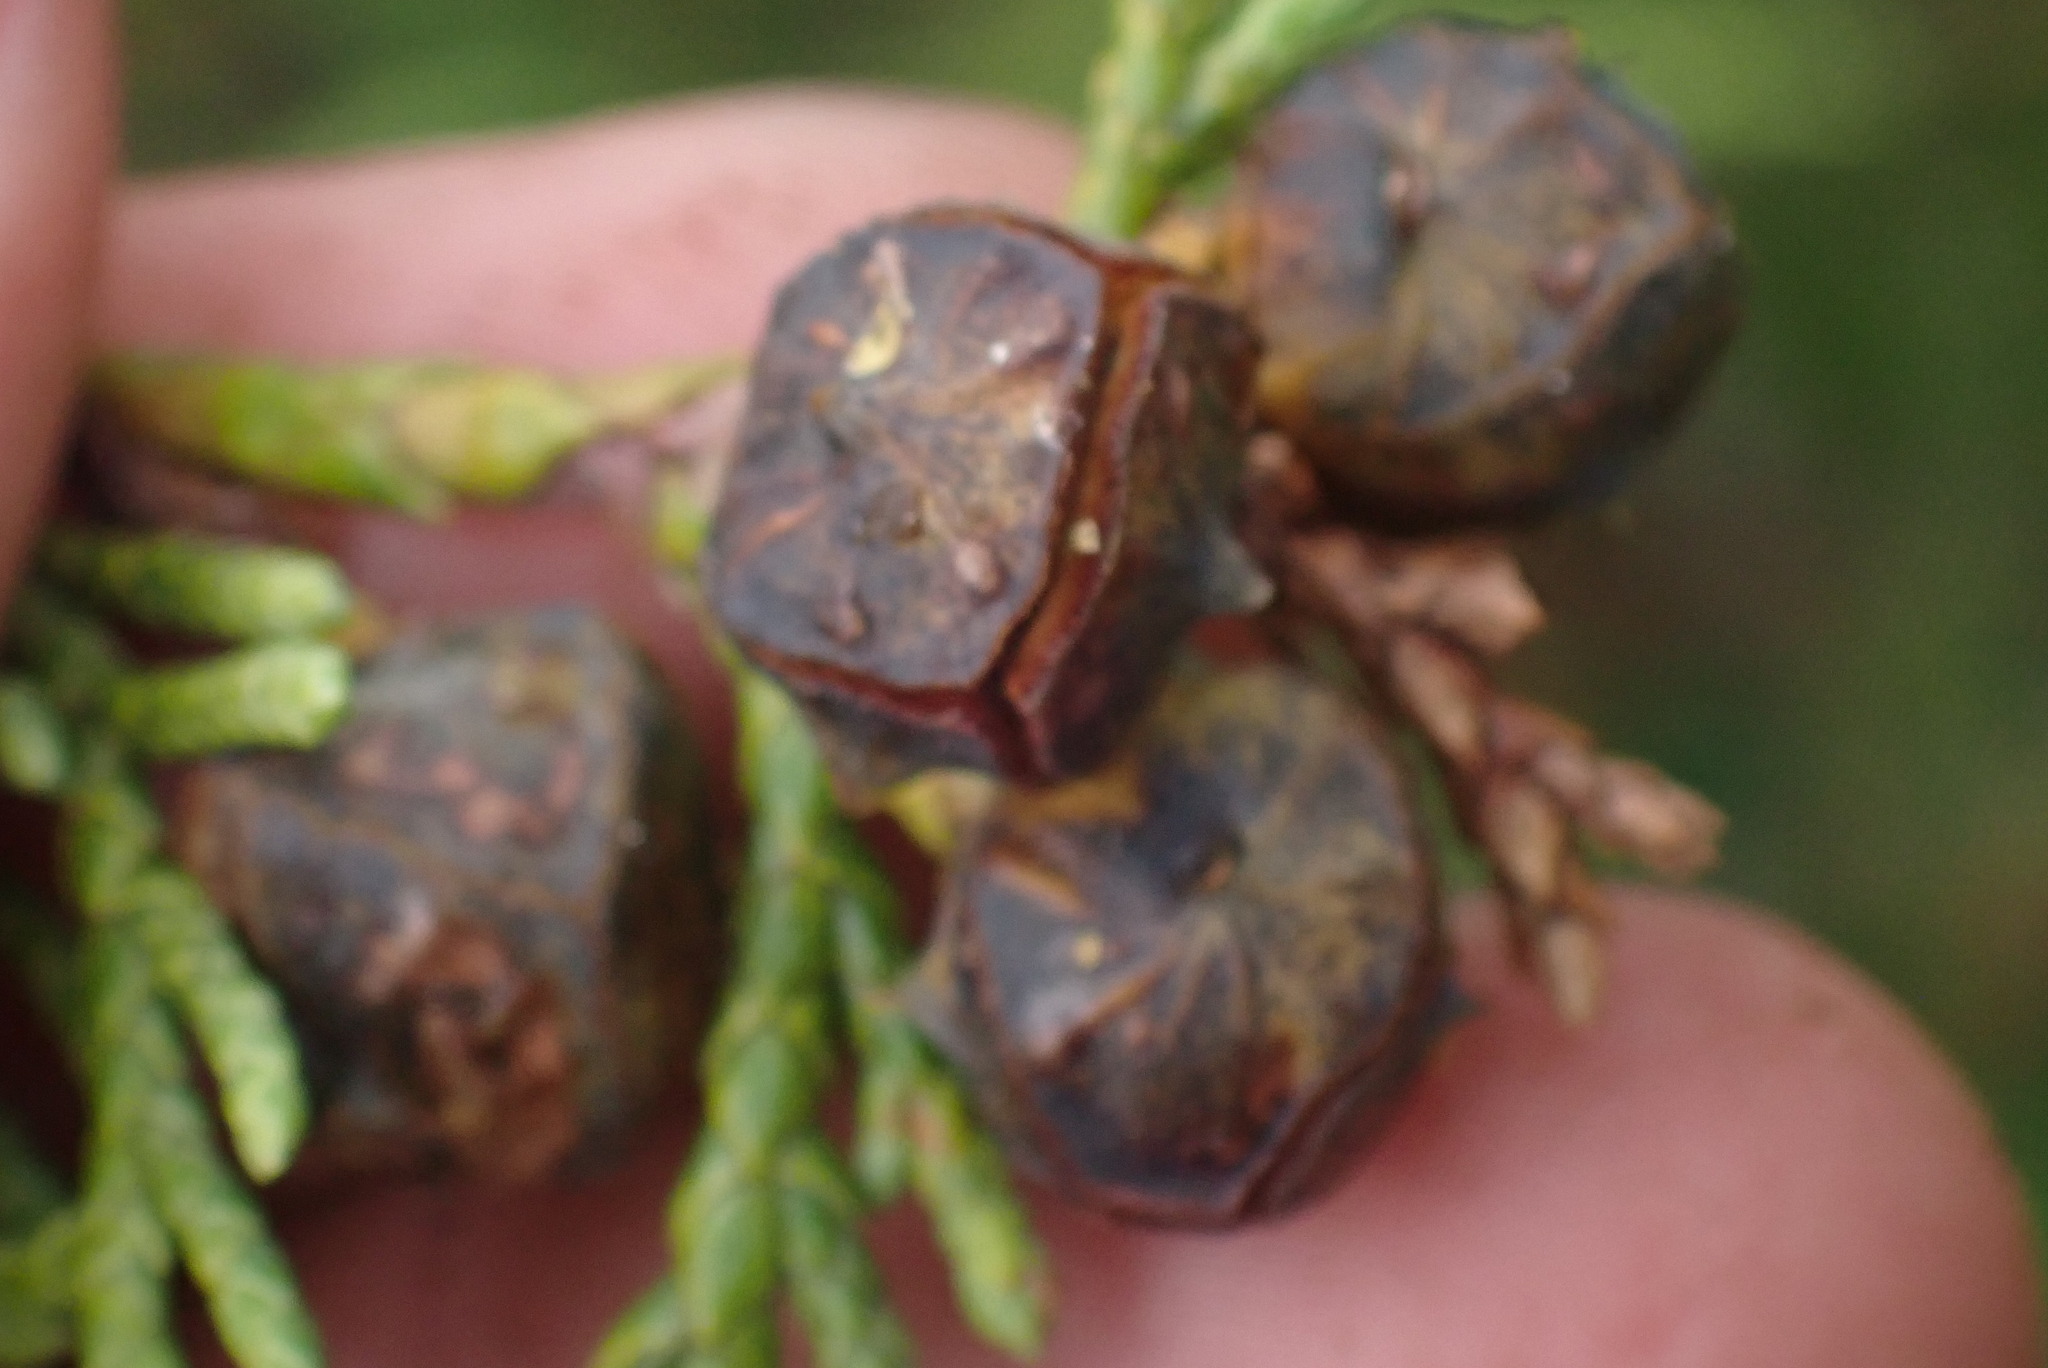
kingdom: Plantae
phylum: Tracheophyta
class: Pinopsida
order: Pinales
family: Cupressaceae
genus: Xanthocyparis
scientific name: Xanthocyparis nootkatensis
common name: Nootka cypress
